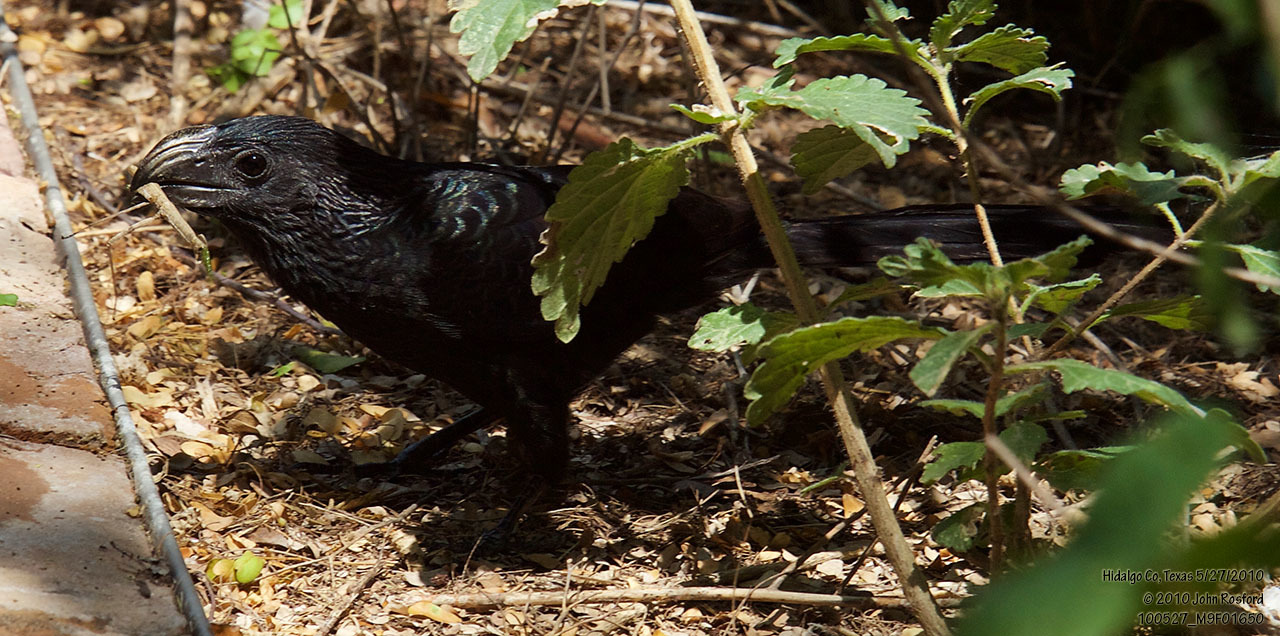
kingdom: Animalia
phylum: Chordata
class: Aves
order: Cuculiformes
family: Cuculidae
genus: Crotophaga
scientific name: Crotophaga sulcirostris
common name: Groove-billed ani
